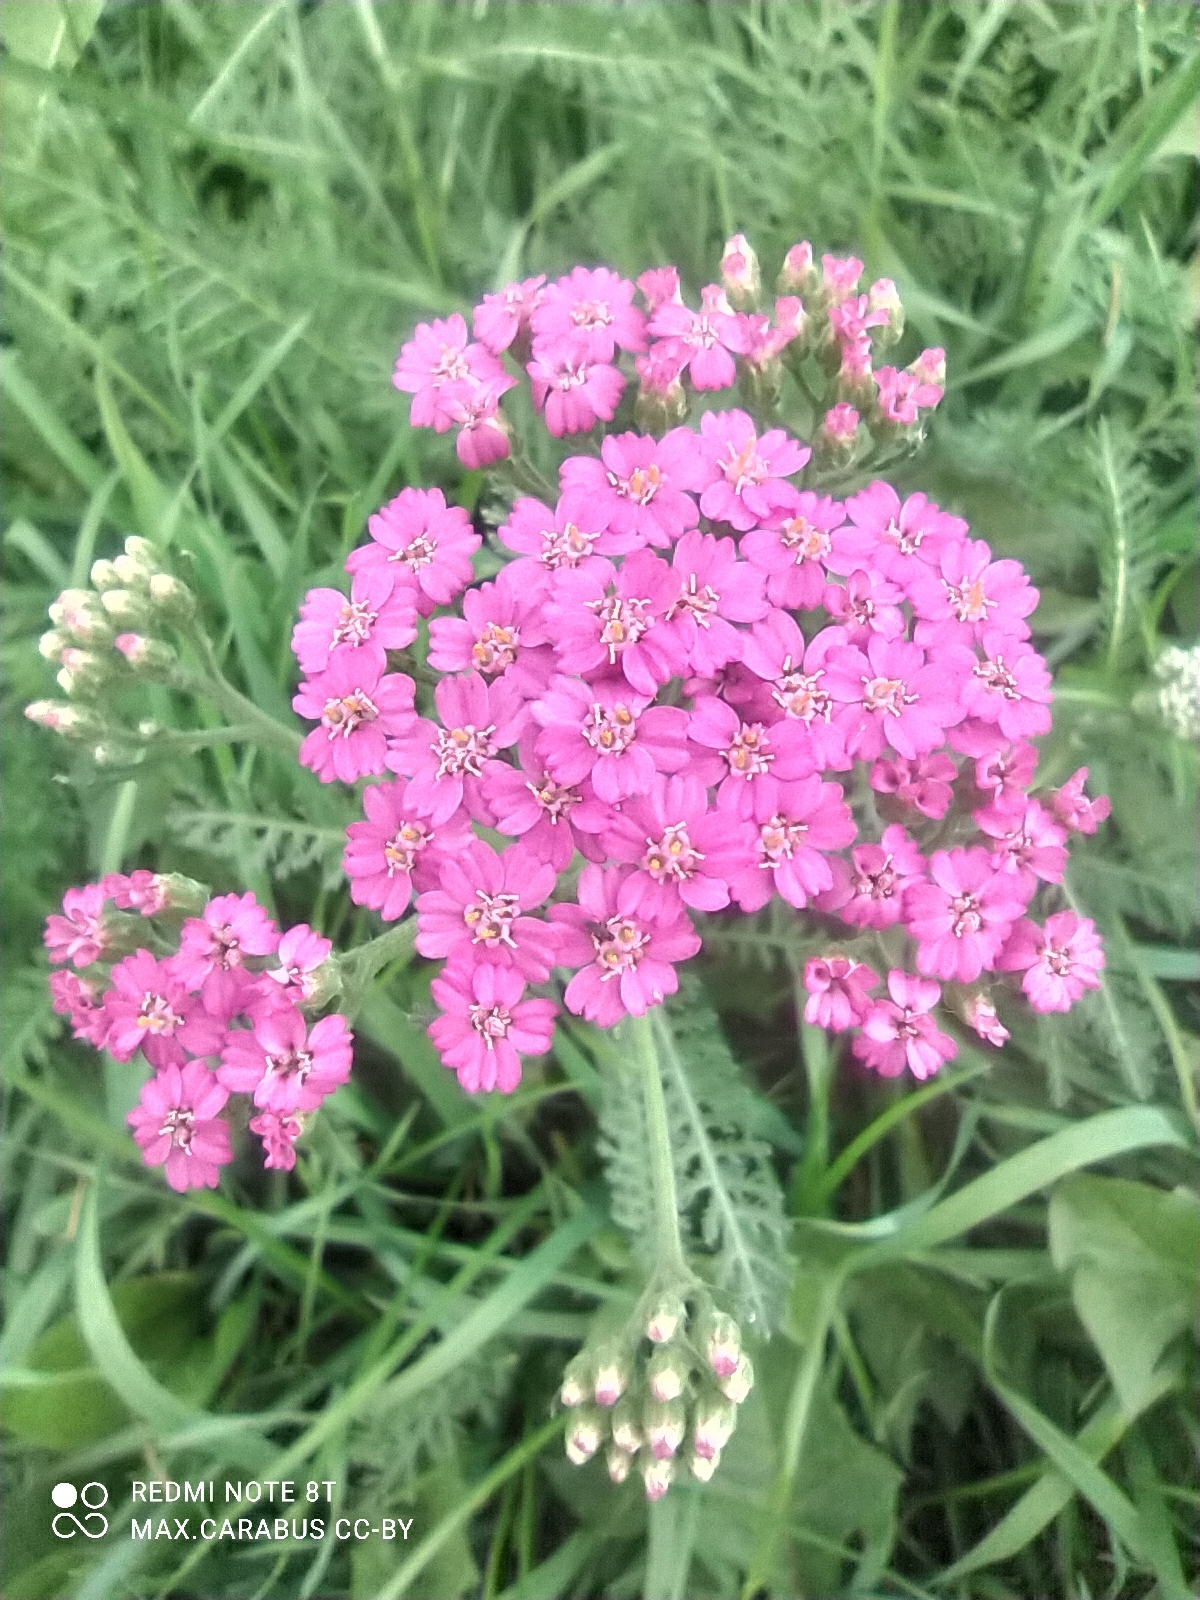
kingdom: Plantae
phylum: Tracheophyta
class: Magnoliopsida
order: Asterales
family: Asteraceae
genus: Achillea
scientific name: Achillea millefolium
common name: Yarrow
